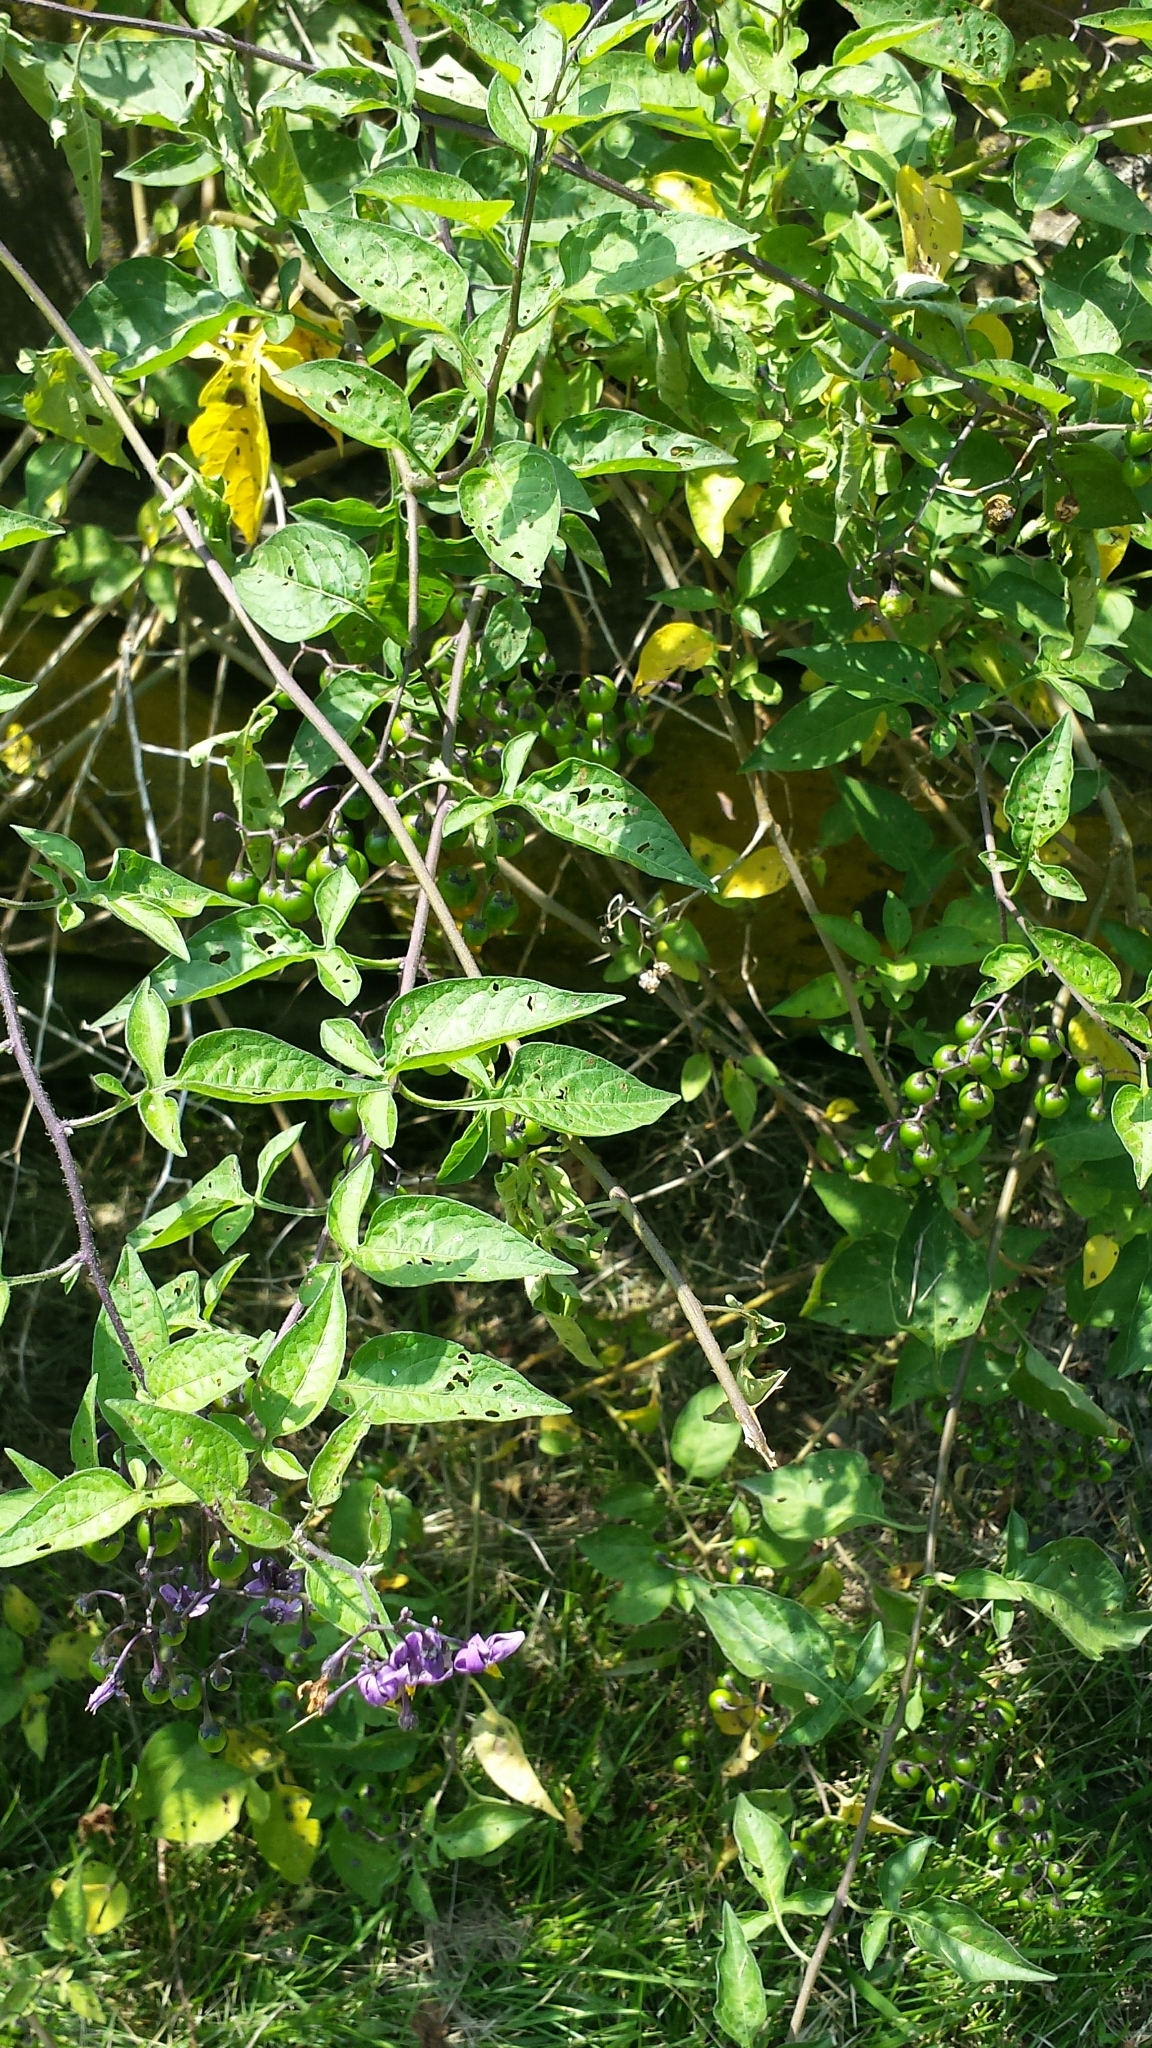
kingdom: Plantae
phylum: Tracheophyta
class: Magnoliopsida
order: Solanales
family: Solanaceae
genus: Solanum
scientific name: Solanum dulcamara
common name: Climbing nightshade
